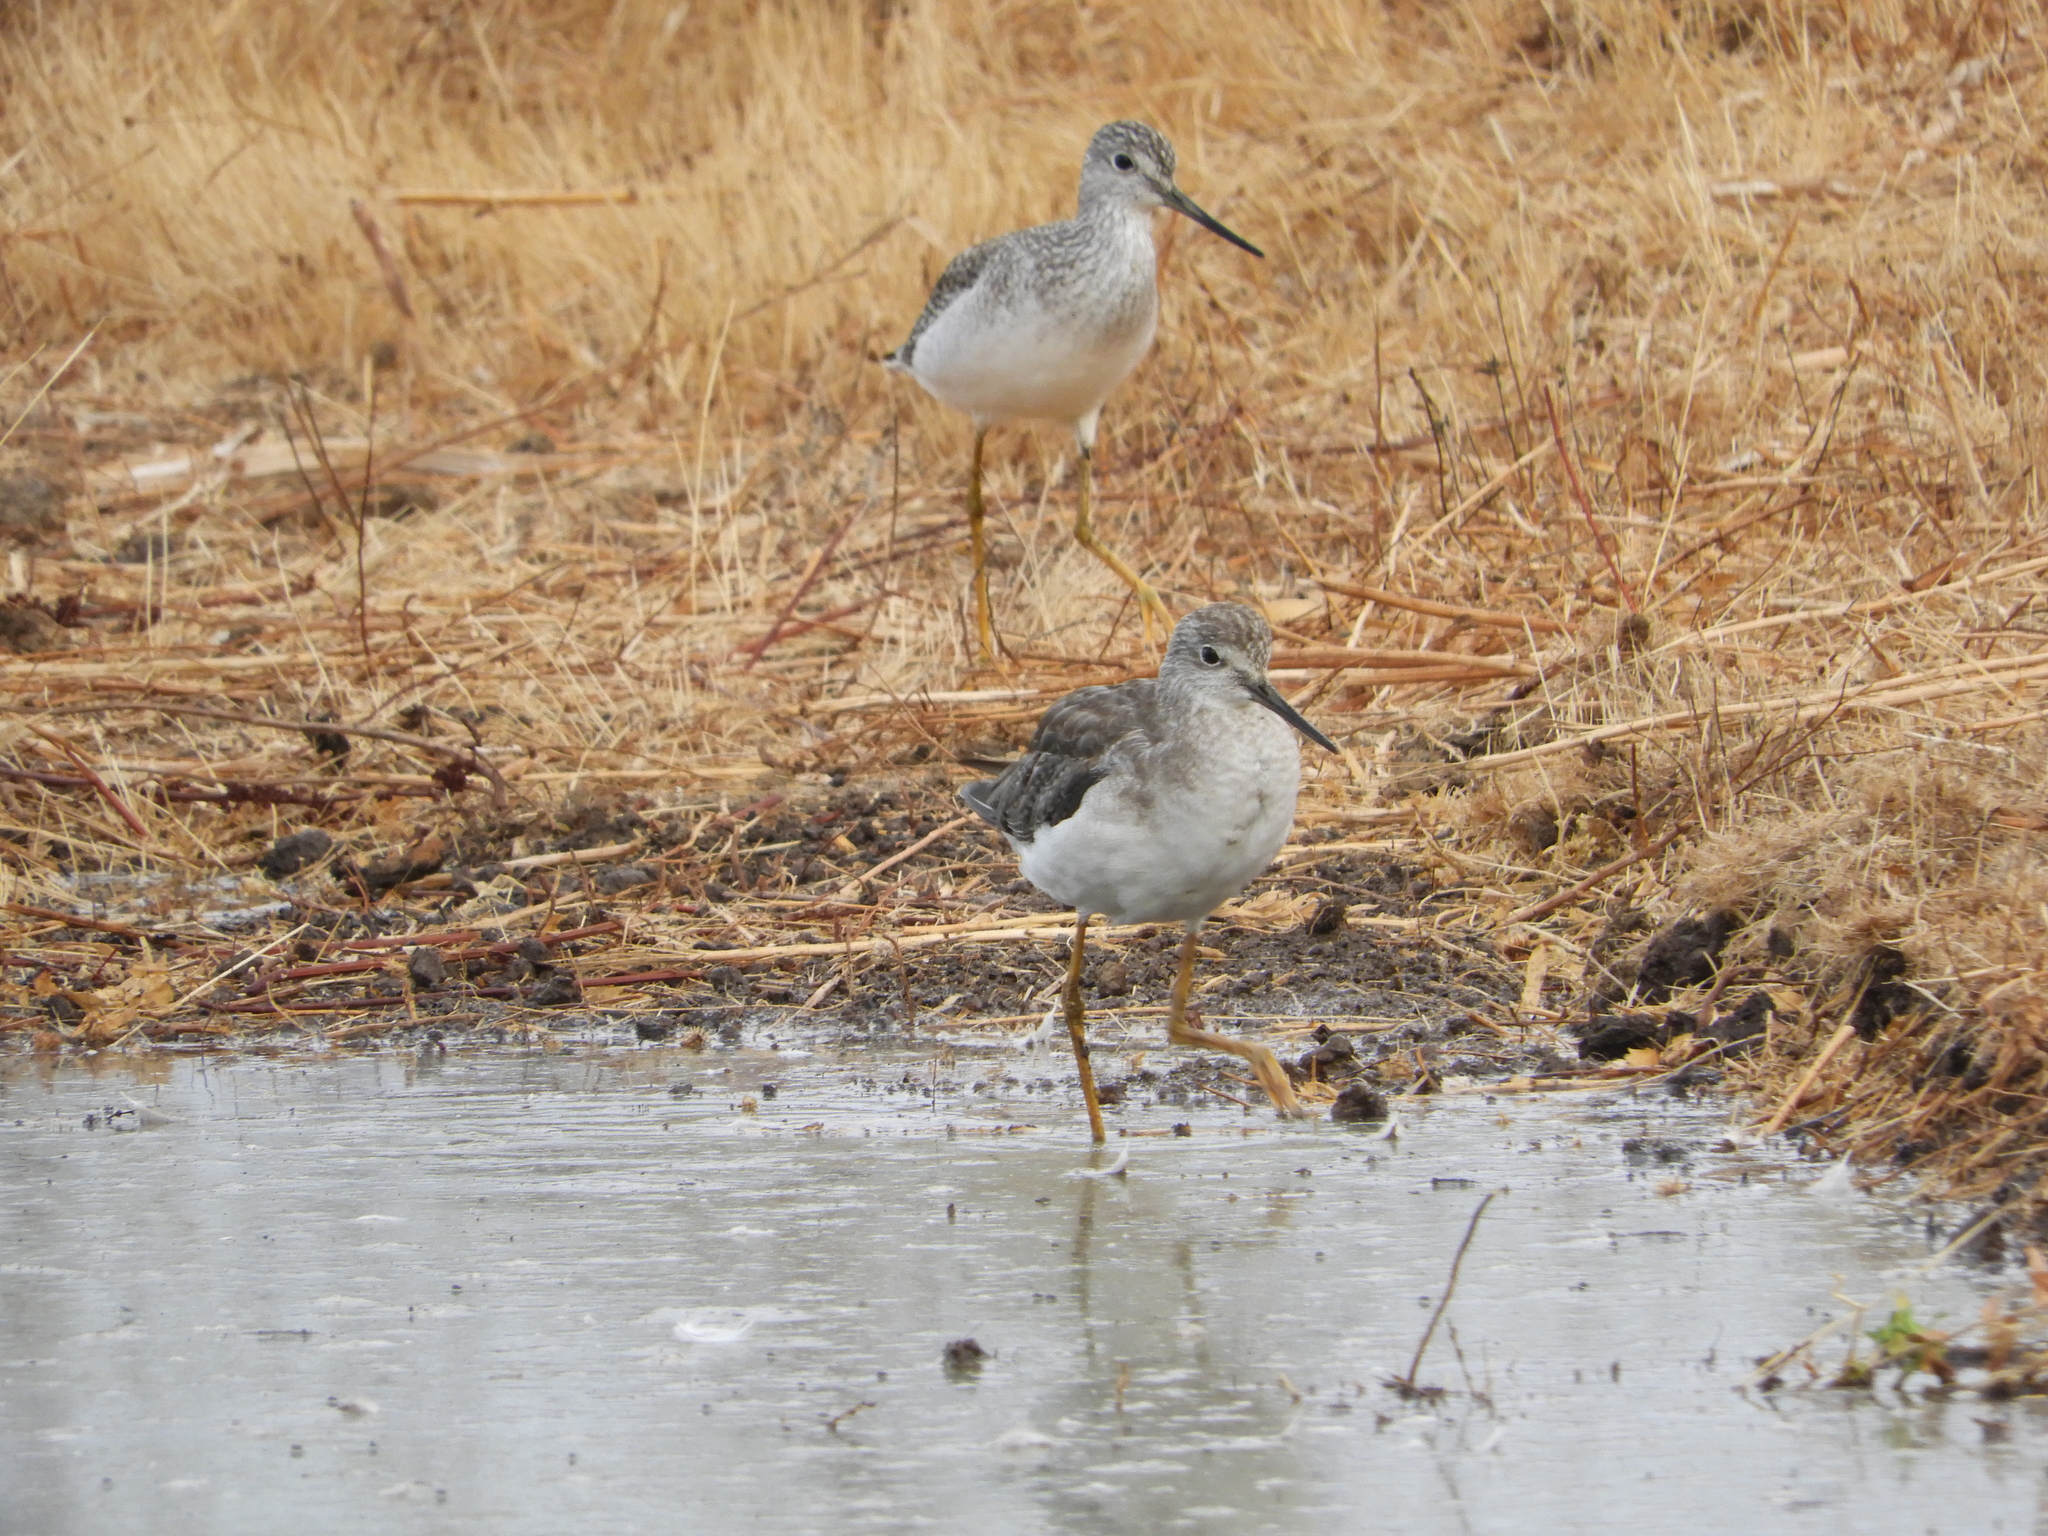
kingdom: Animalia
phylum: Chordata
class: Aves
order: Charadriiformes
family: Scolopacidae
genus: Tringa
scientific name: Tringa melanoleuca
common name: Greater yellowlegs
